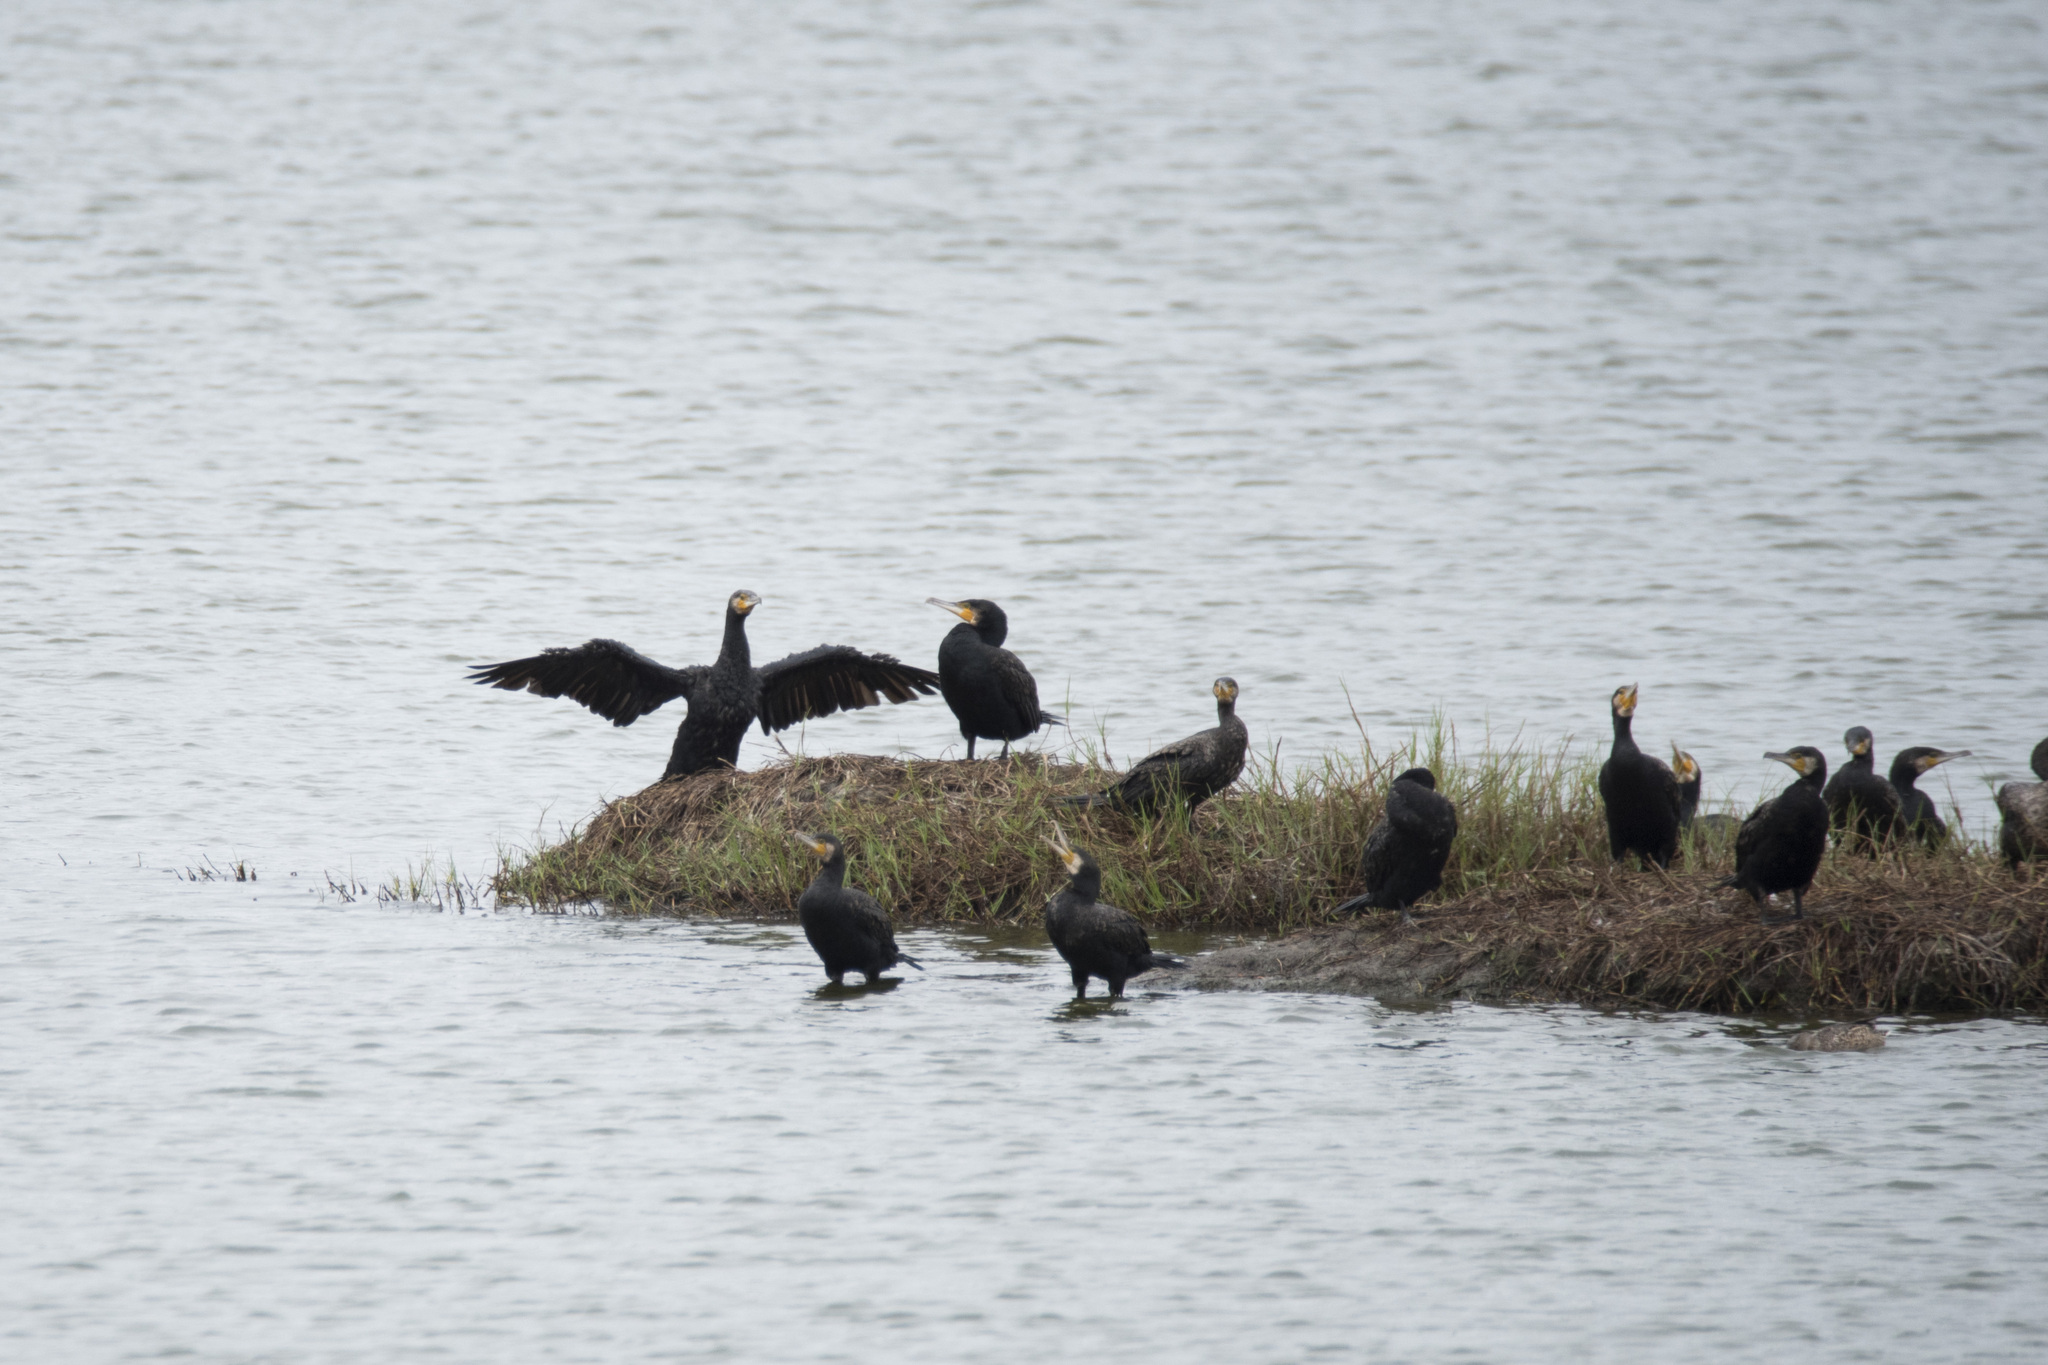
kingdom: Animalia
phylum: Chordata
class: Aves
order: Suliformes
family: Phalacrocoracidae
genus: Phalacrocorax
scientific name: Phalacrocorax carbo
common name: Great cormorant
